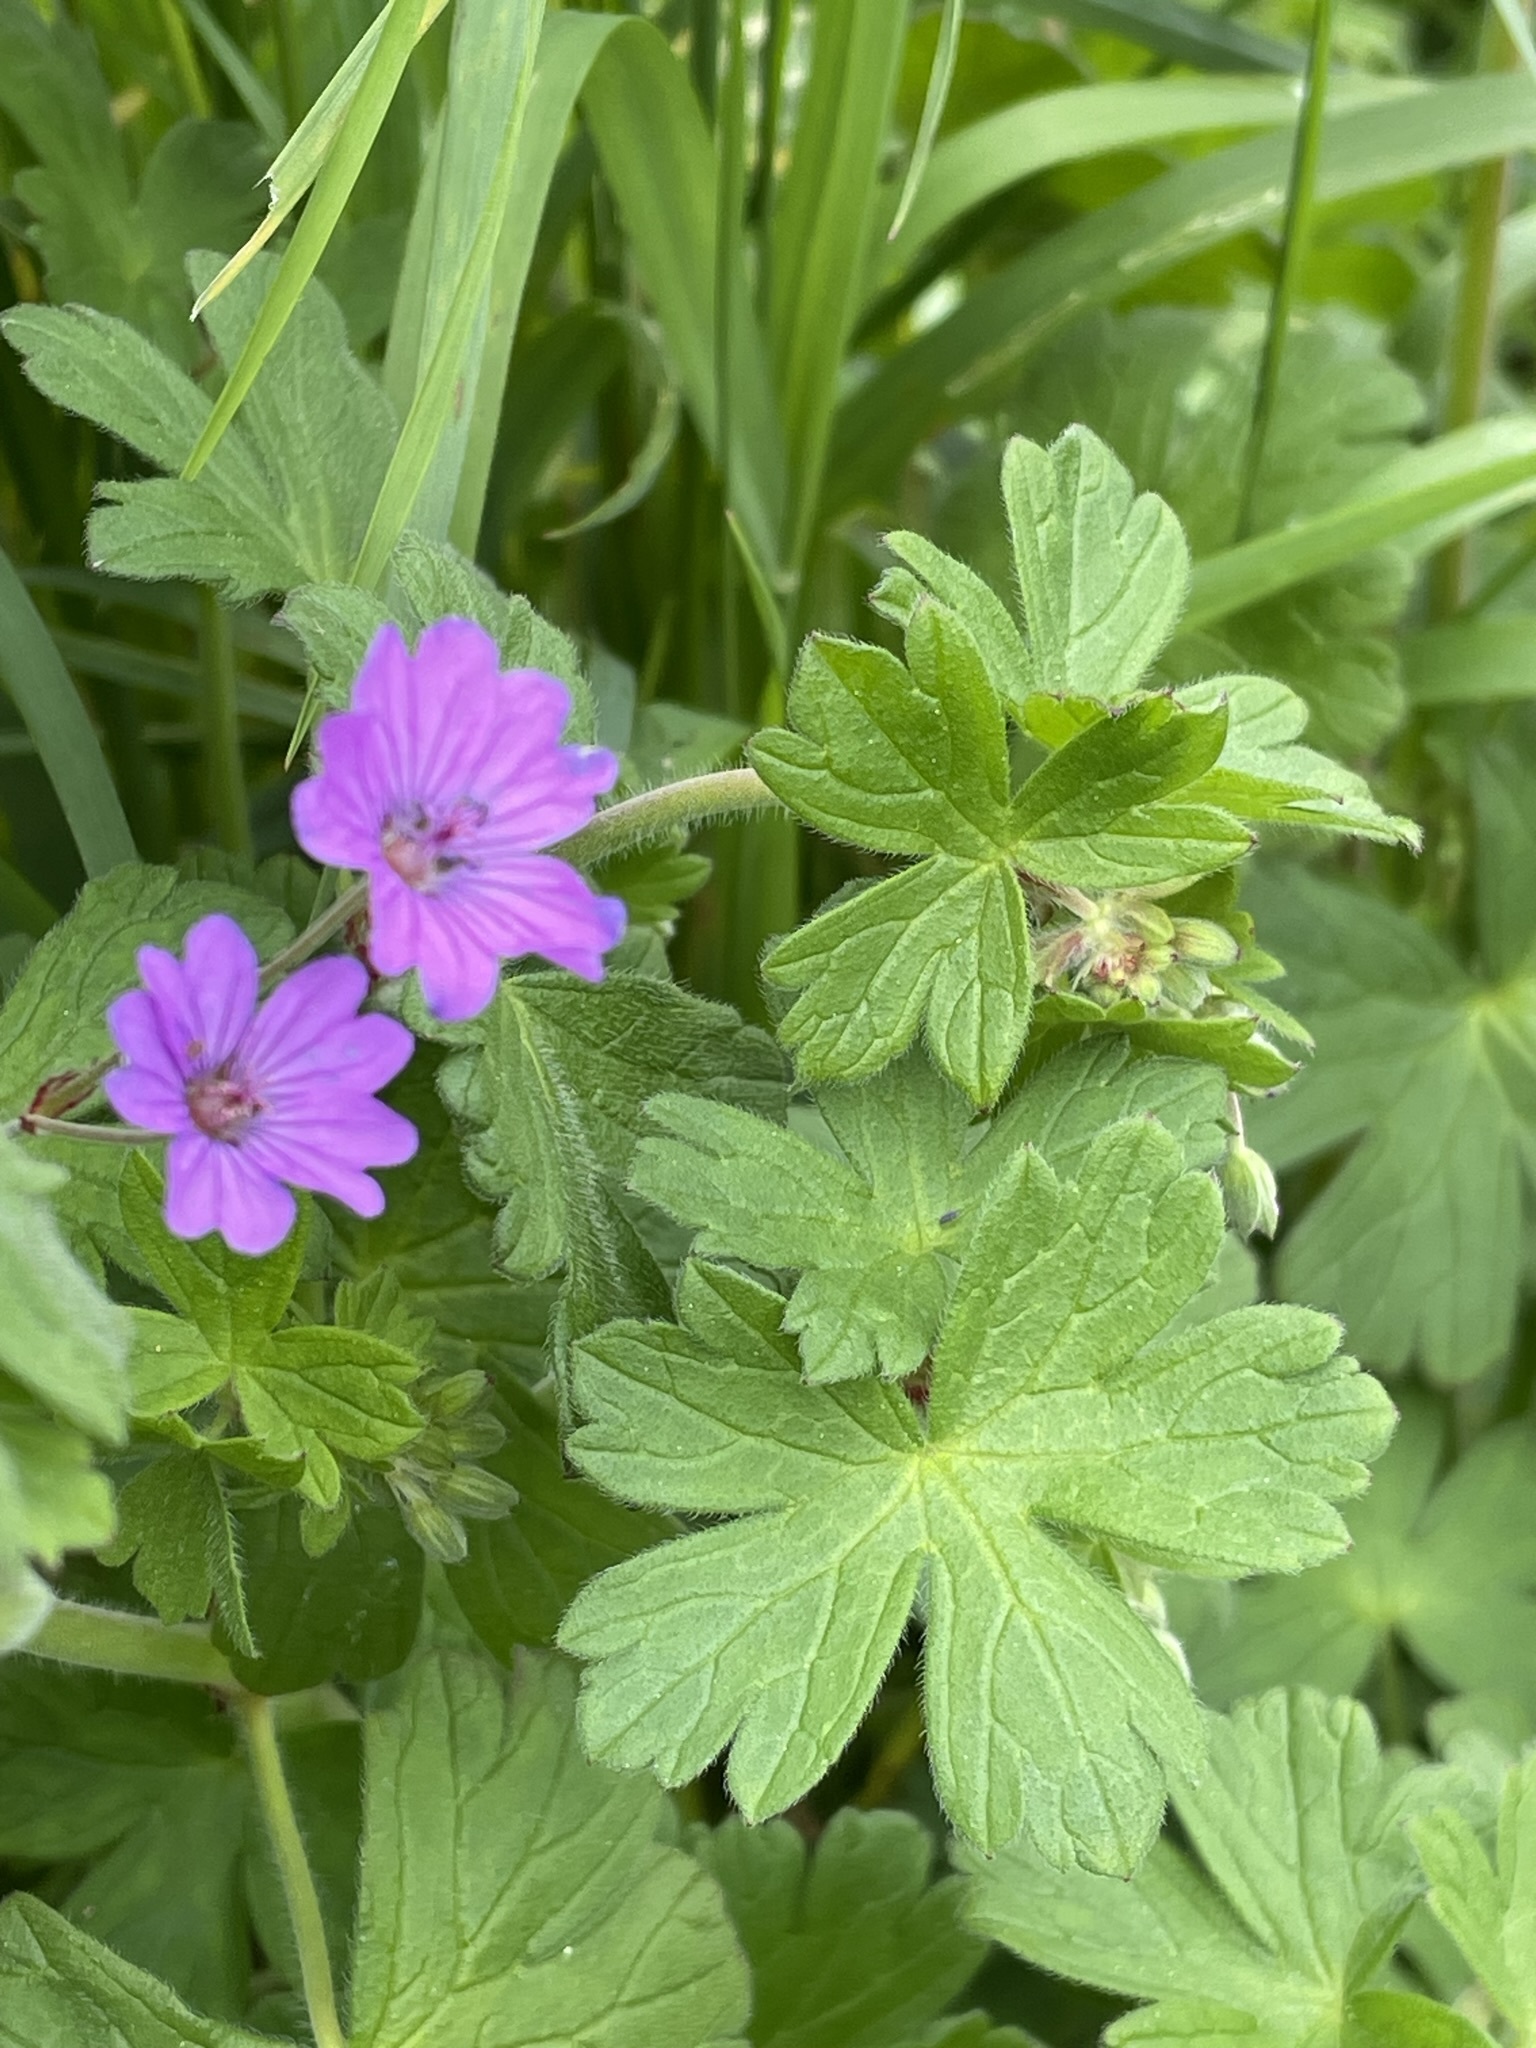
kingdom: Plantae
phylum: Tracheophyta
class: Magnoliopsida
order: Geraniales
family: Geraniaceae
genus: Geranium
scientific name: Geranium pyrenaicum
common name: Hedgerow crane's-bill
